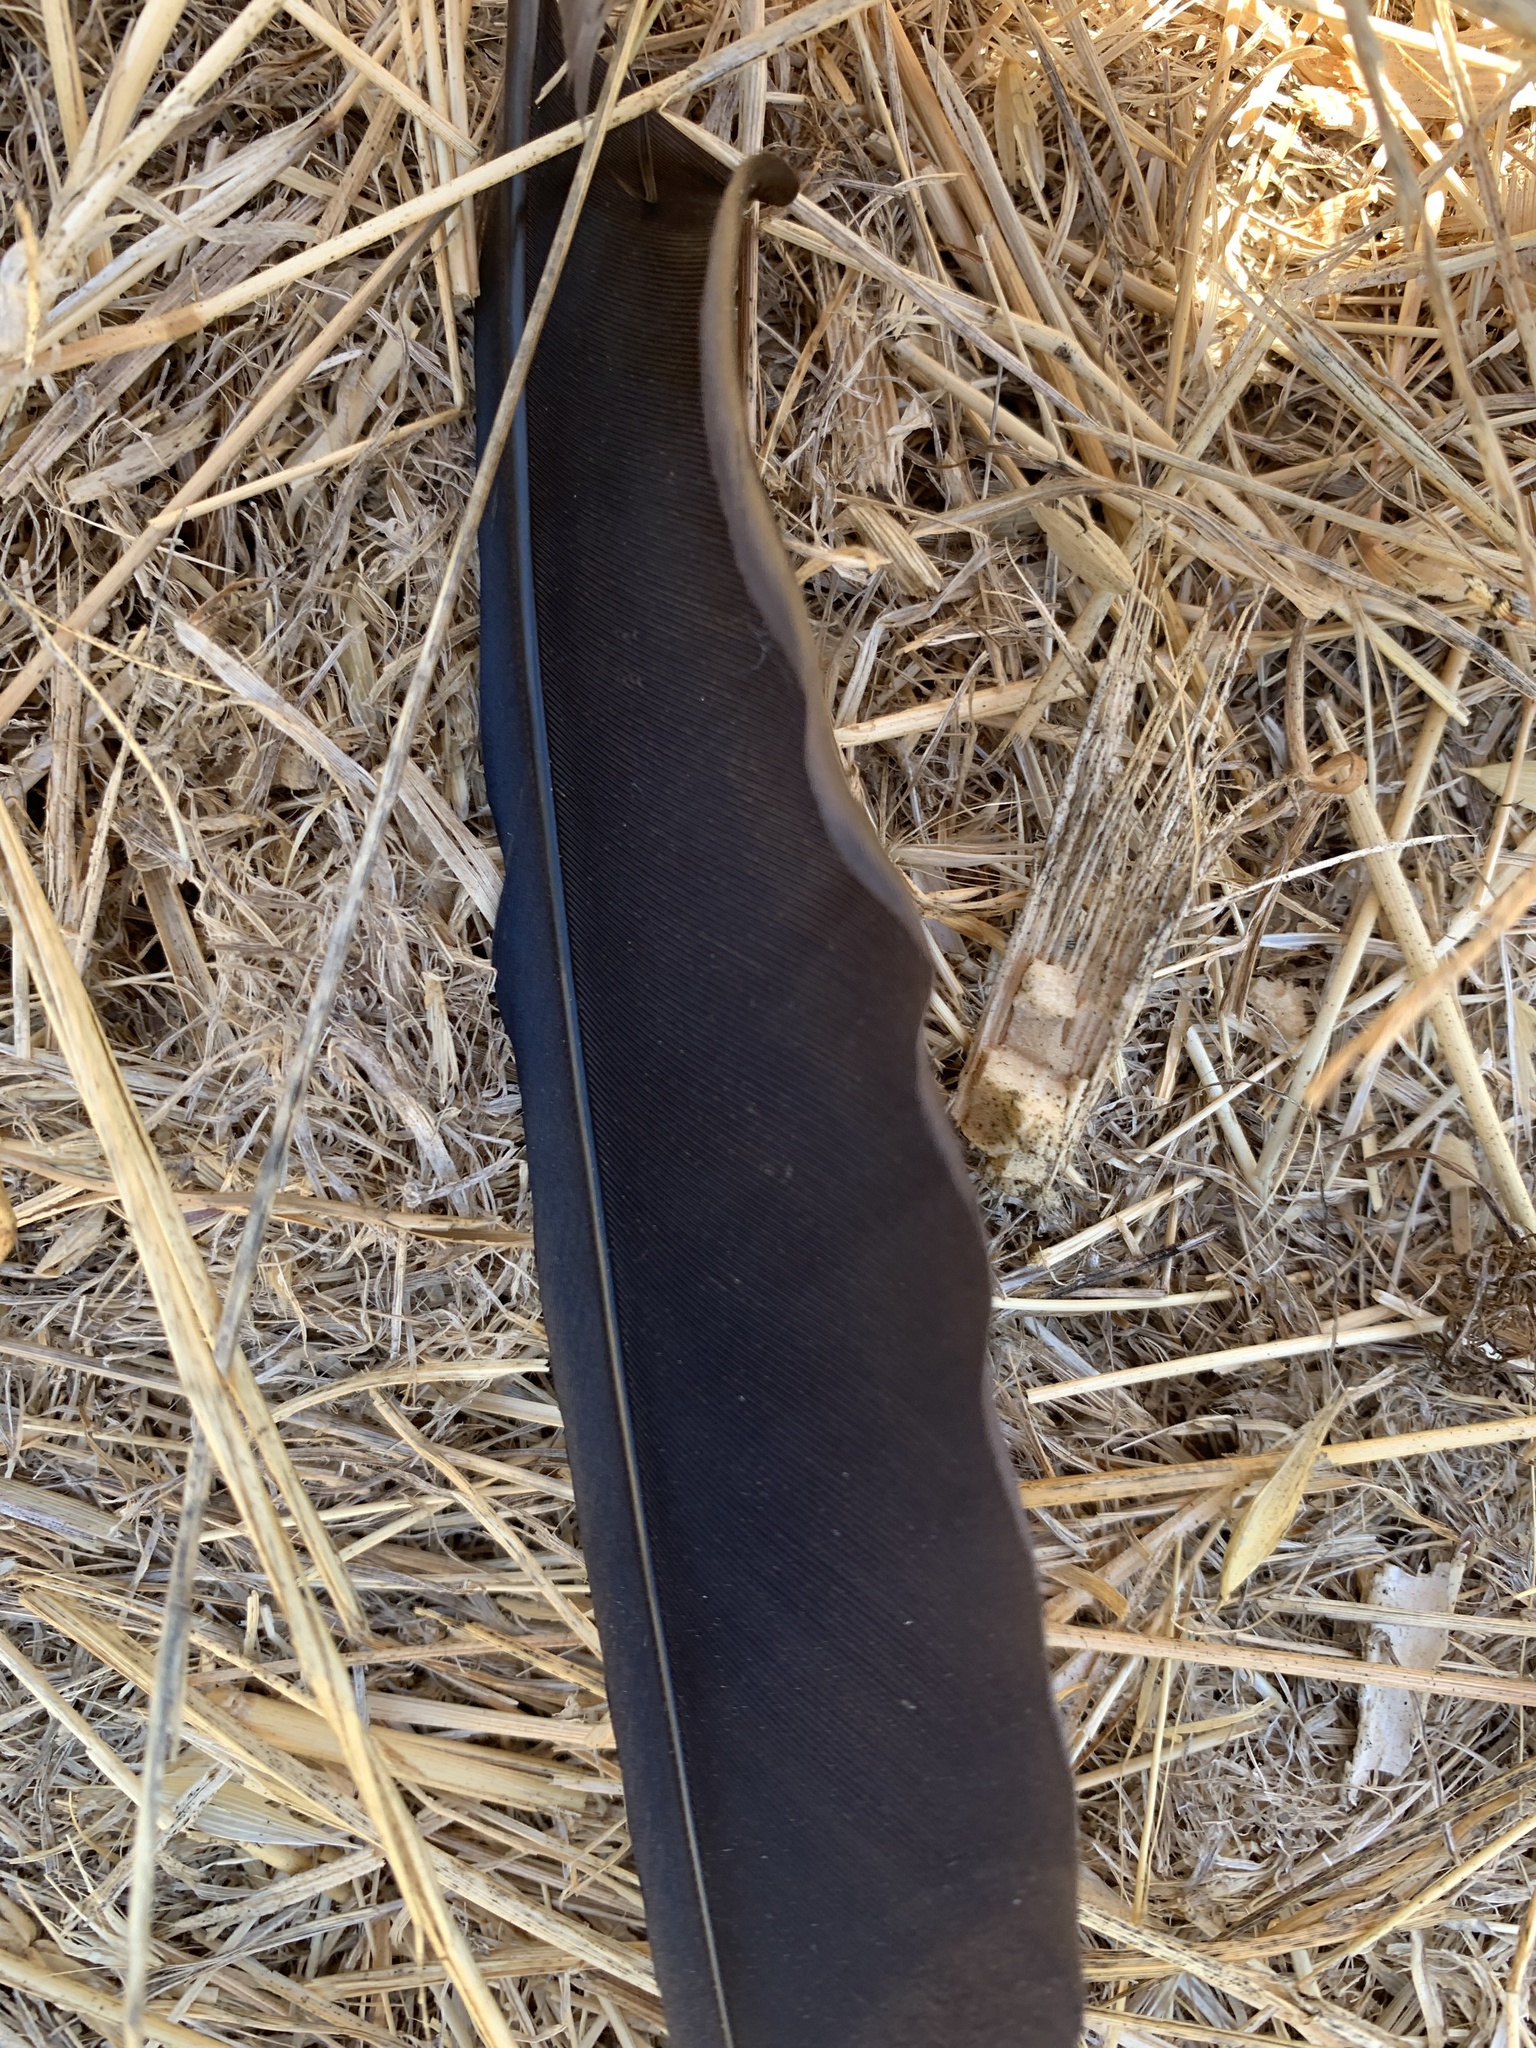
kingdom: Animalia
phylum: Chordata
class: Aves
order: Passeriformes
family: Corvidae
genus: Corvus
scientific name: Corvus brachyrhynchos
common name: American crow
